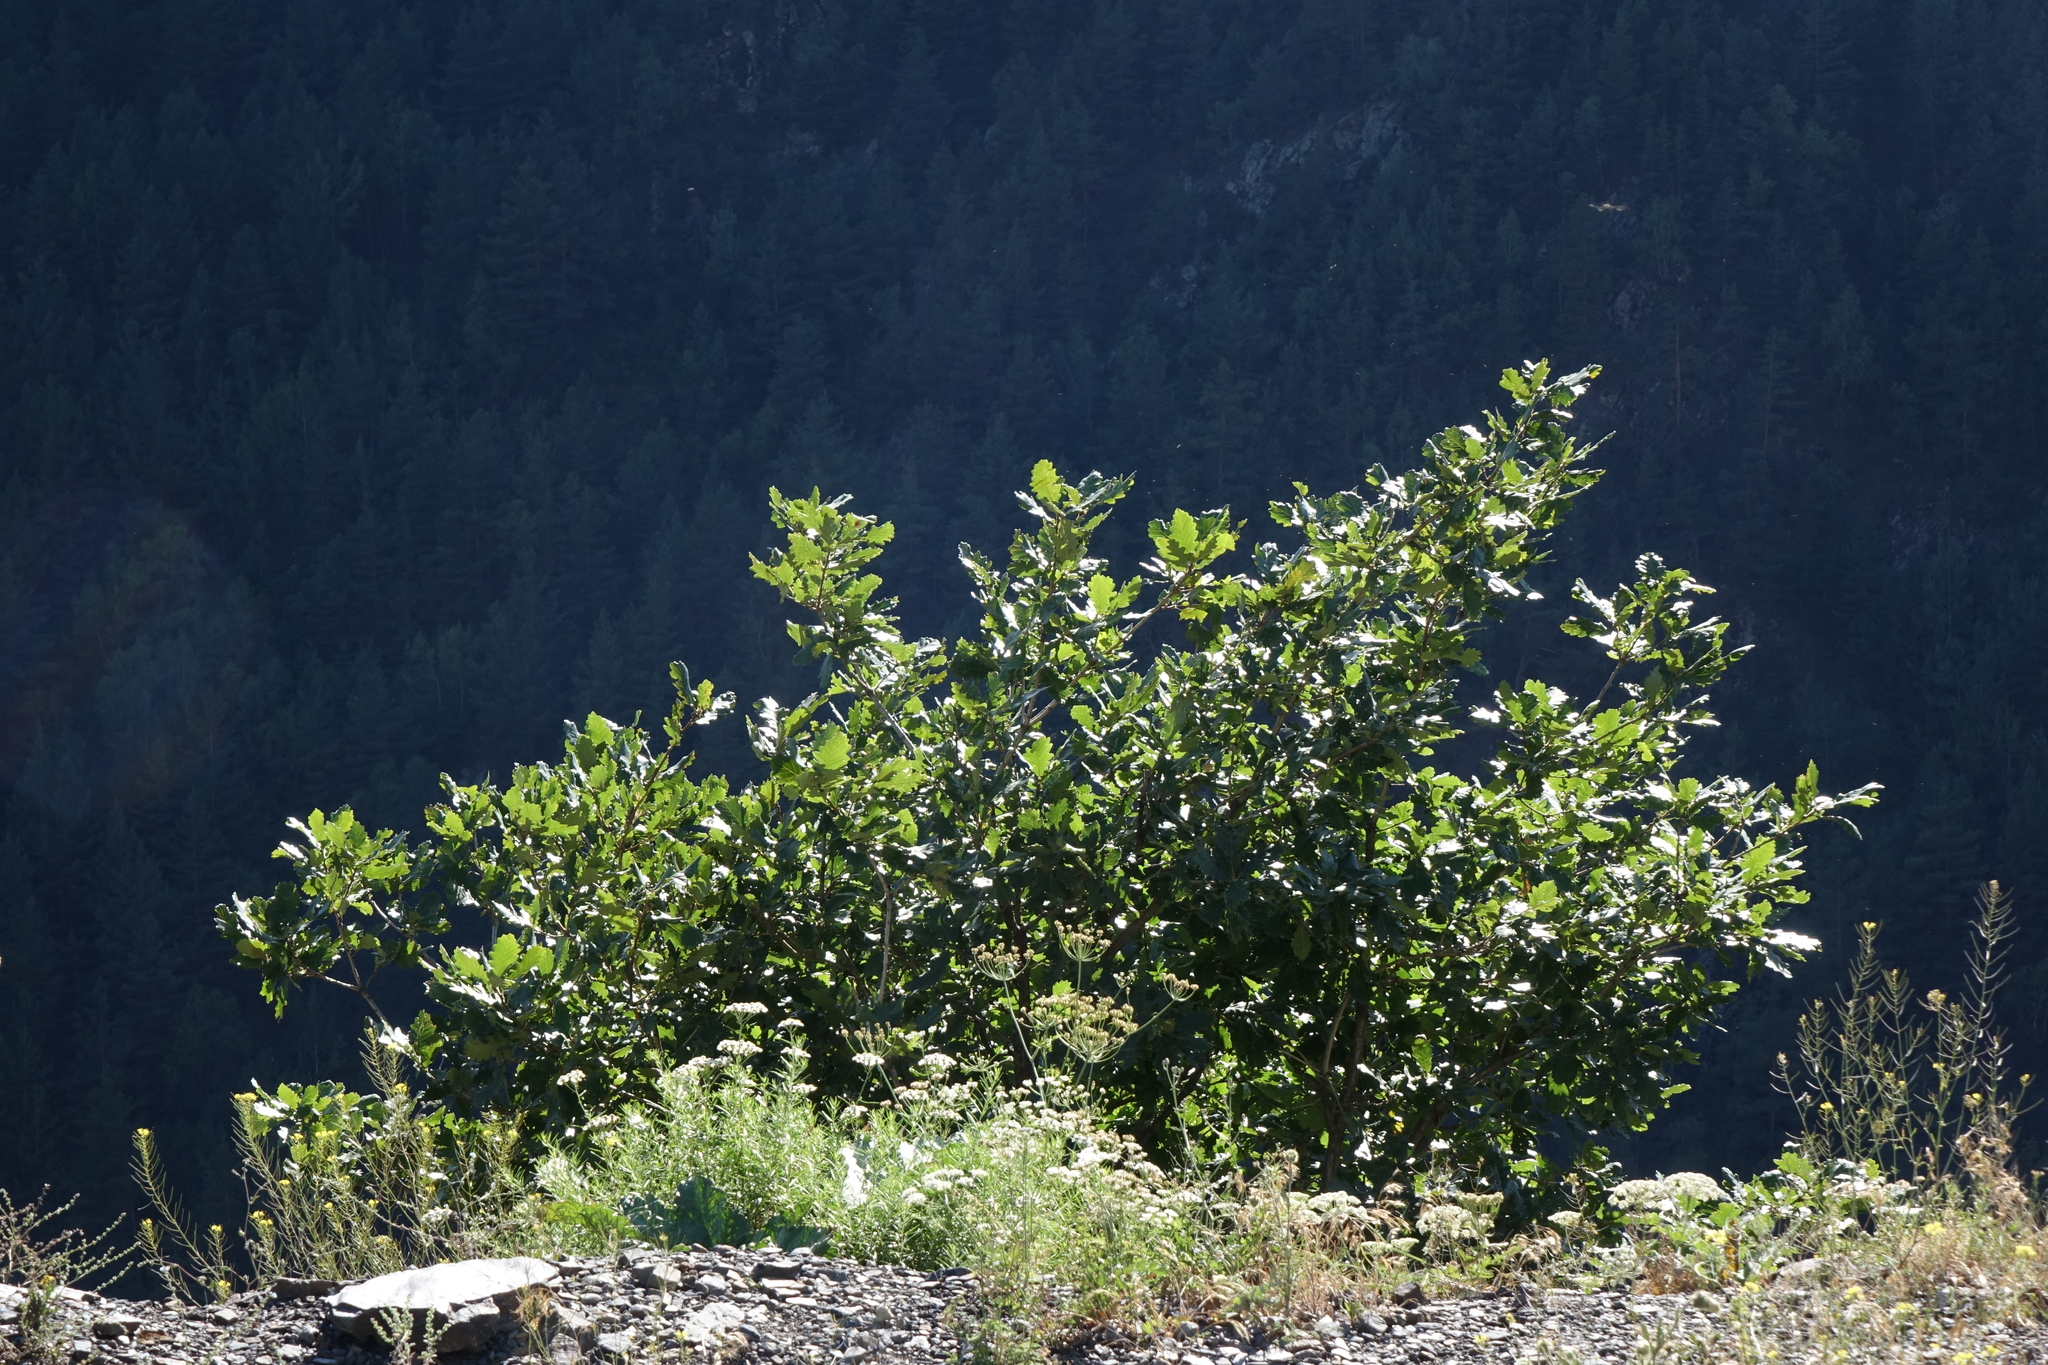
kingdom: Plantae
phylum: Tracheophyta
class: Magnoliopsida
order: Fagales
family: Fagaceae
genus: Quercus
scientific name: Quercus macranthera
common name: Caucasian oak
